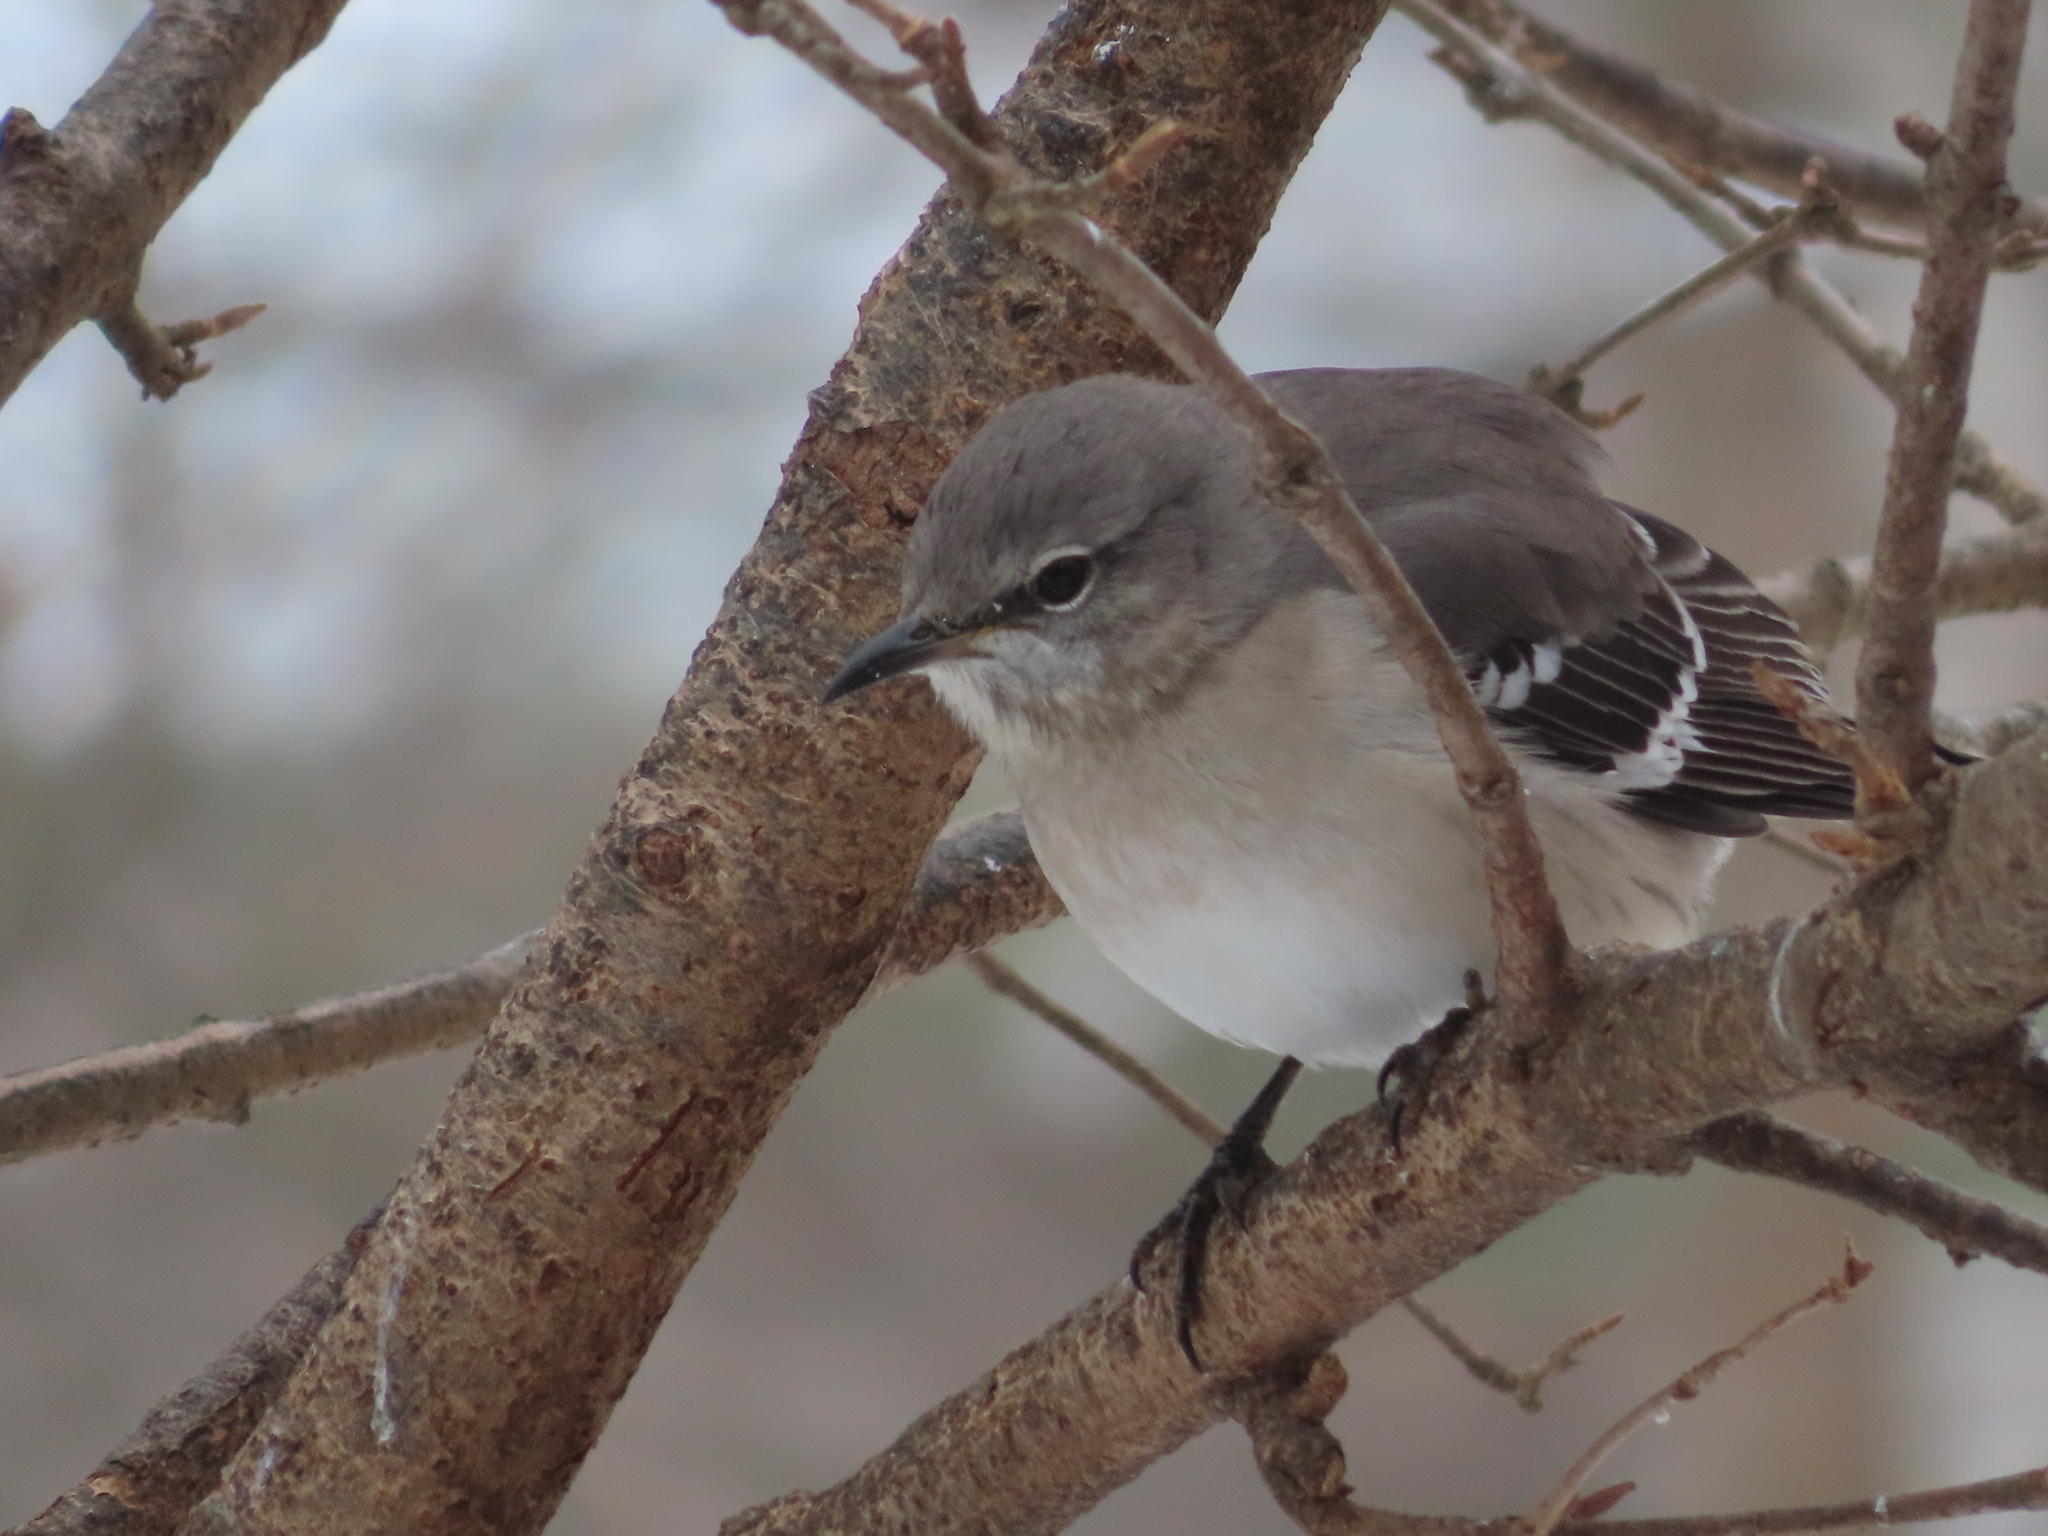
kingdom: Animalia
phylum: Chordata
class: Aves
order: Passeriformes
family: Mimidae
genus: Mimus
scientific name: Mimus polyglottos
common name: Northern mockingbird
